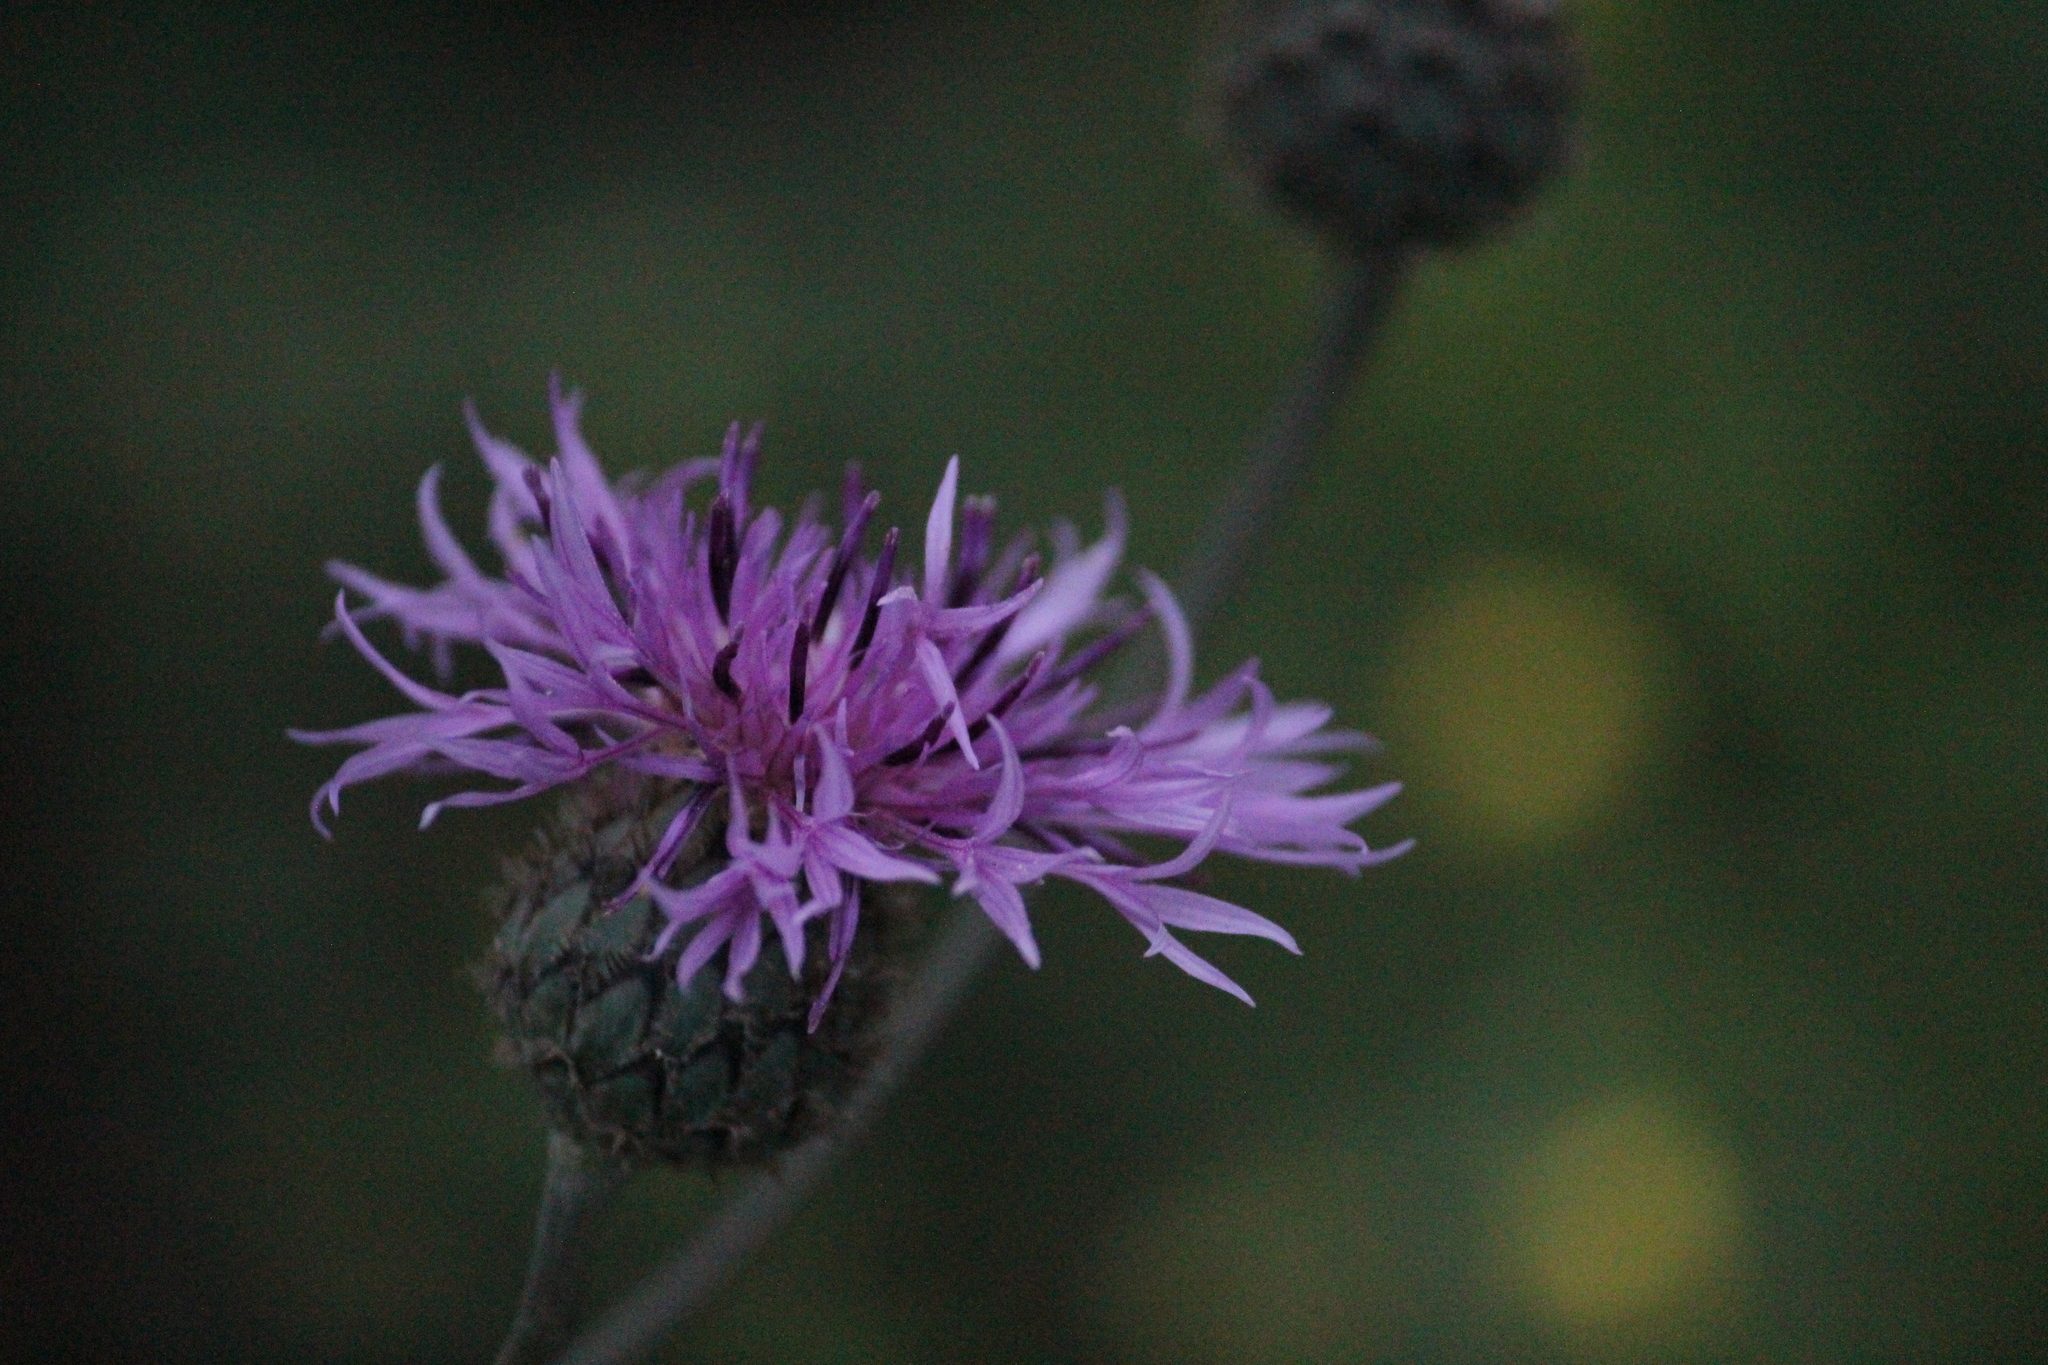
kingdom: Plantae
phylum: Tracheophyta
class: Magnoliopsida
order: Asterales
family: Asteraceae
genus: Centaurea
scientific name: Centaurea scabiosa
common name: Greater knapweed
